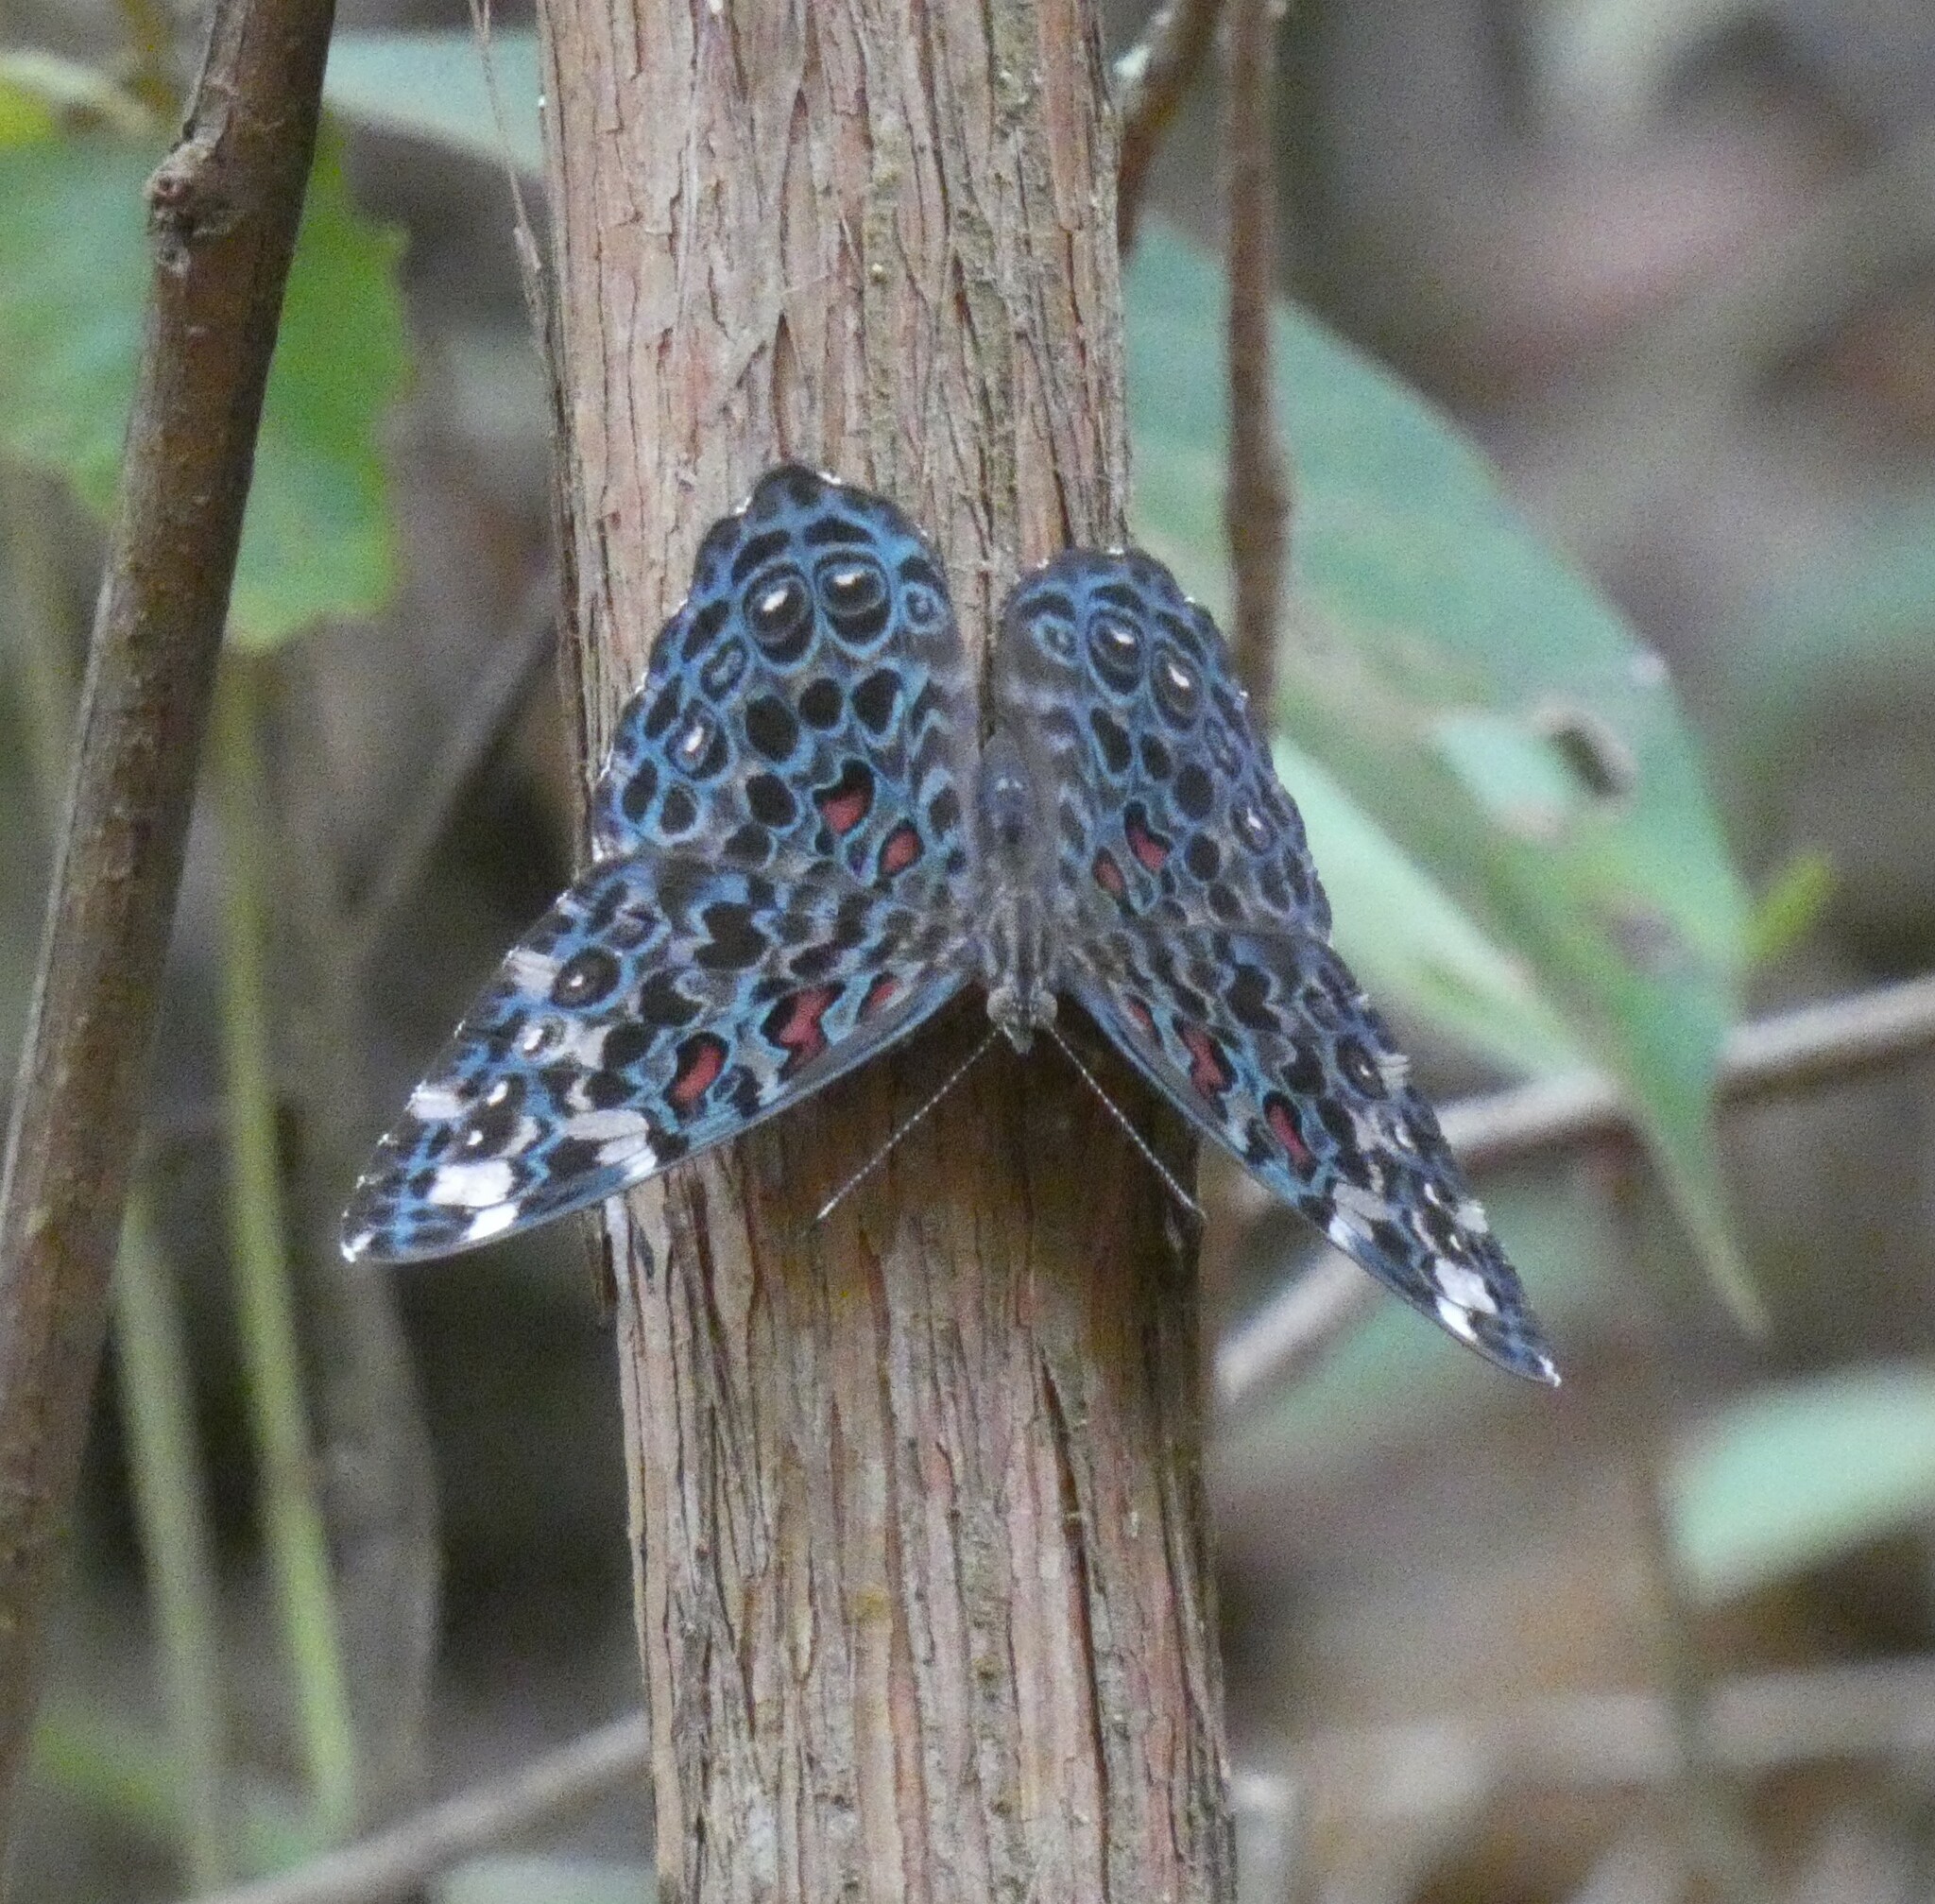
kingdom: Animalia
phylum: Arthropoda
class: Insecta
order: Lepidoptera
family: Nymphalidae
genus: Hamadryas
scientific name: Hamadryas chloe
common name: Amazon cracker
